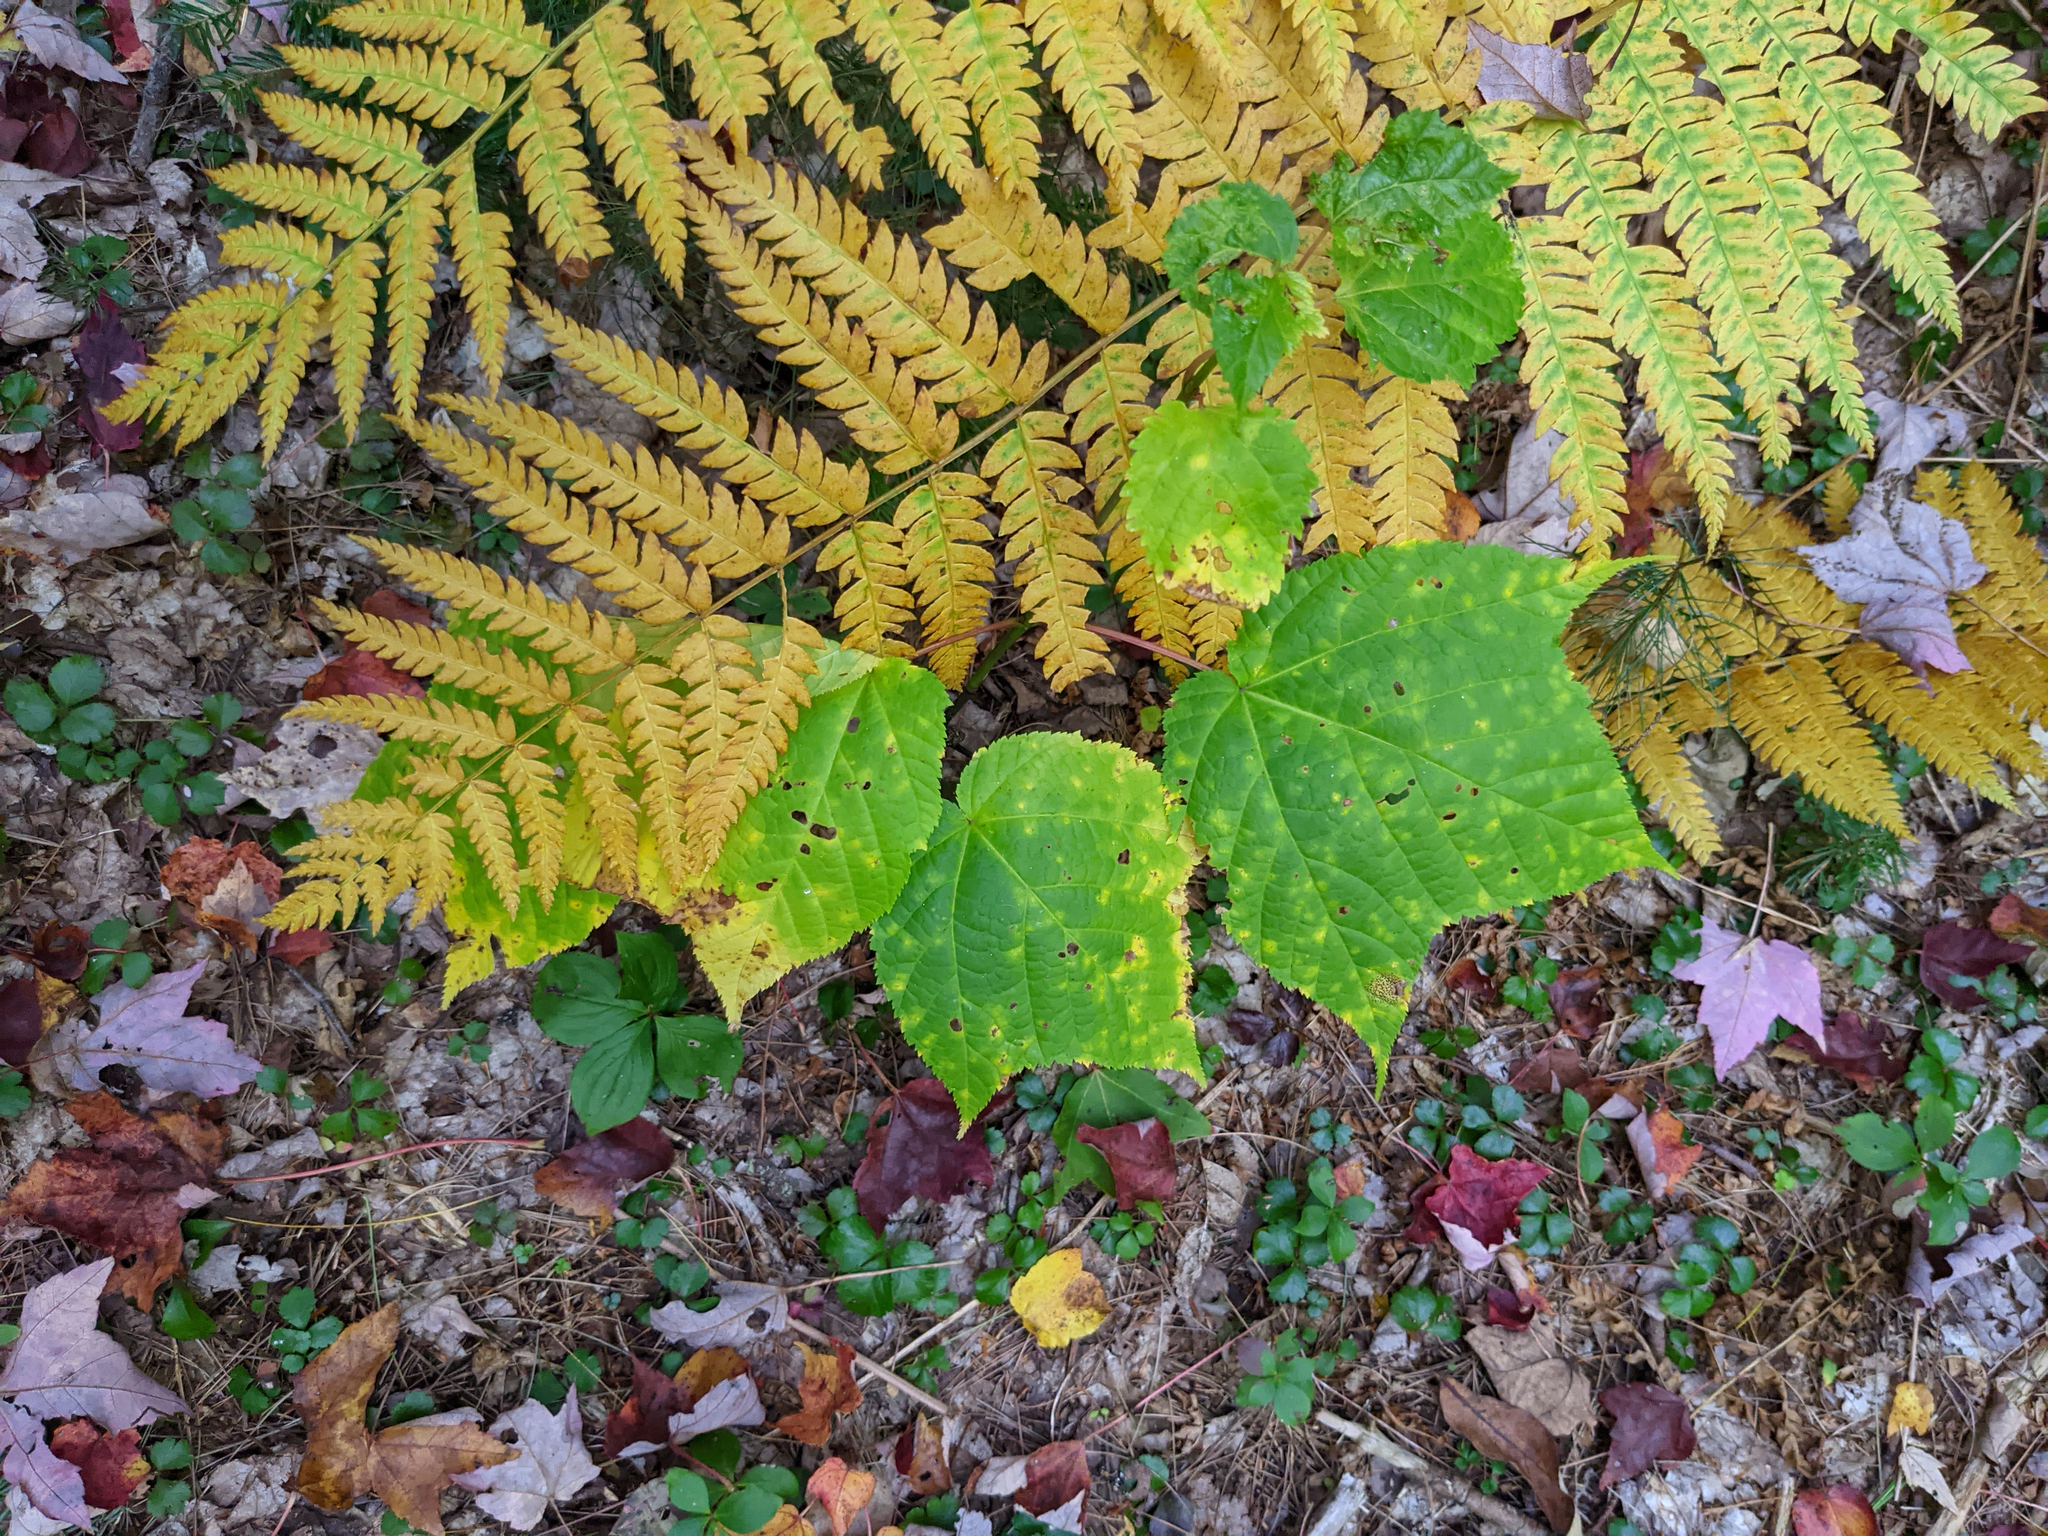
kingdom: Plantae
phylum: Tracheophyta
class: Magnoliopsida
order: Sapindales
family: Sapindaceae
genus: Acer
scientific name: Acer pensylvanicum
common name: Moosewood
